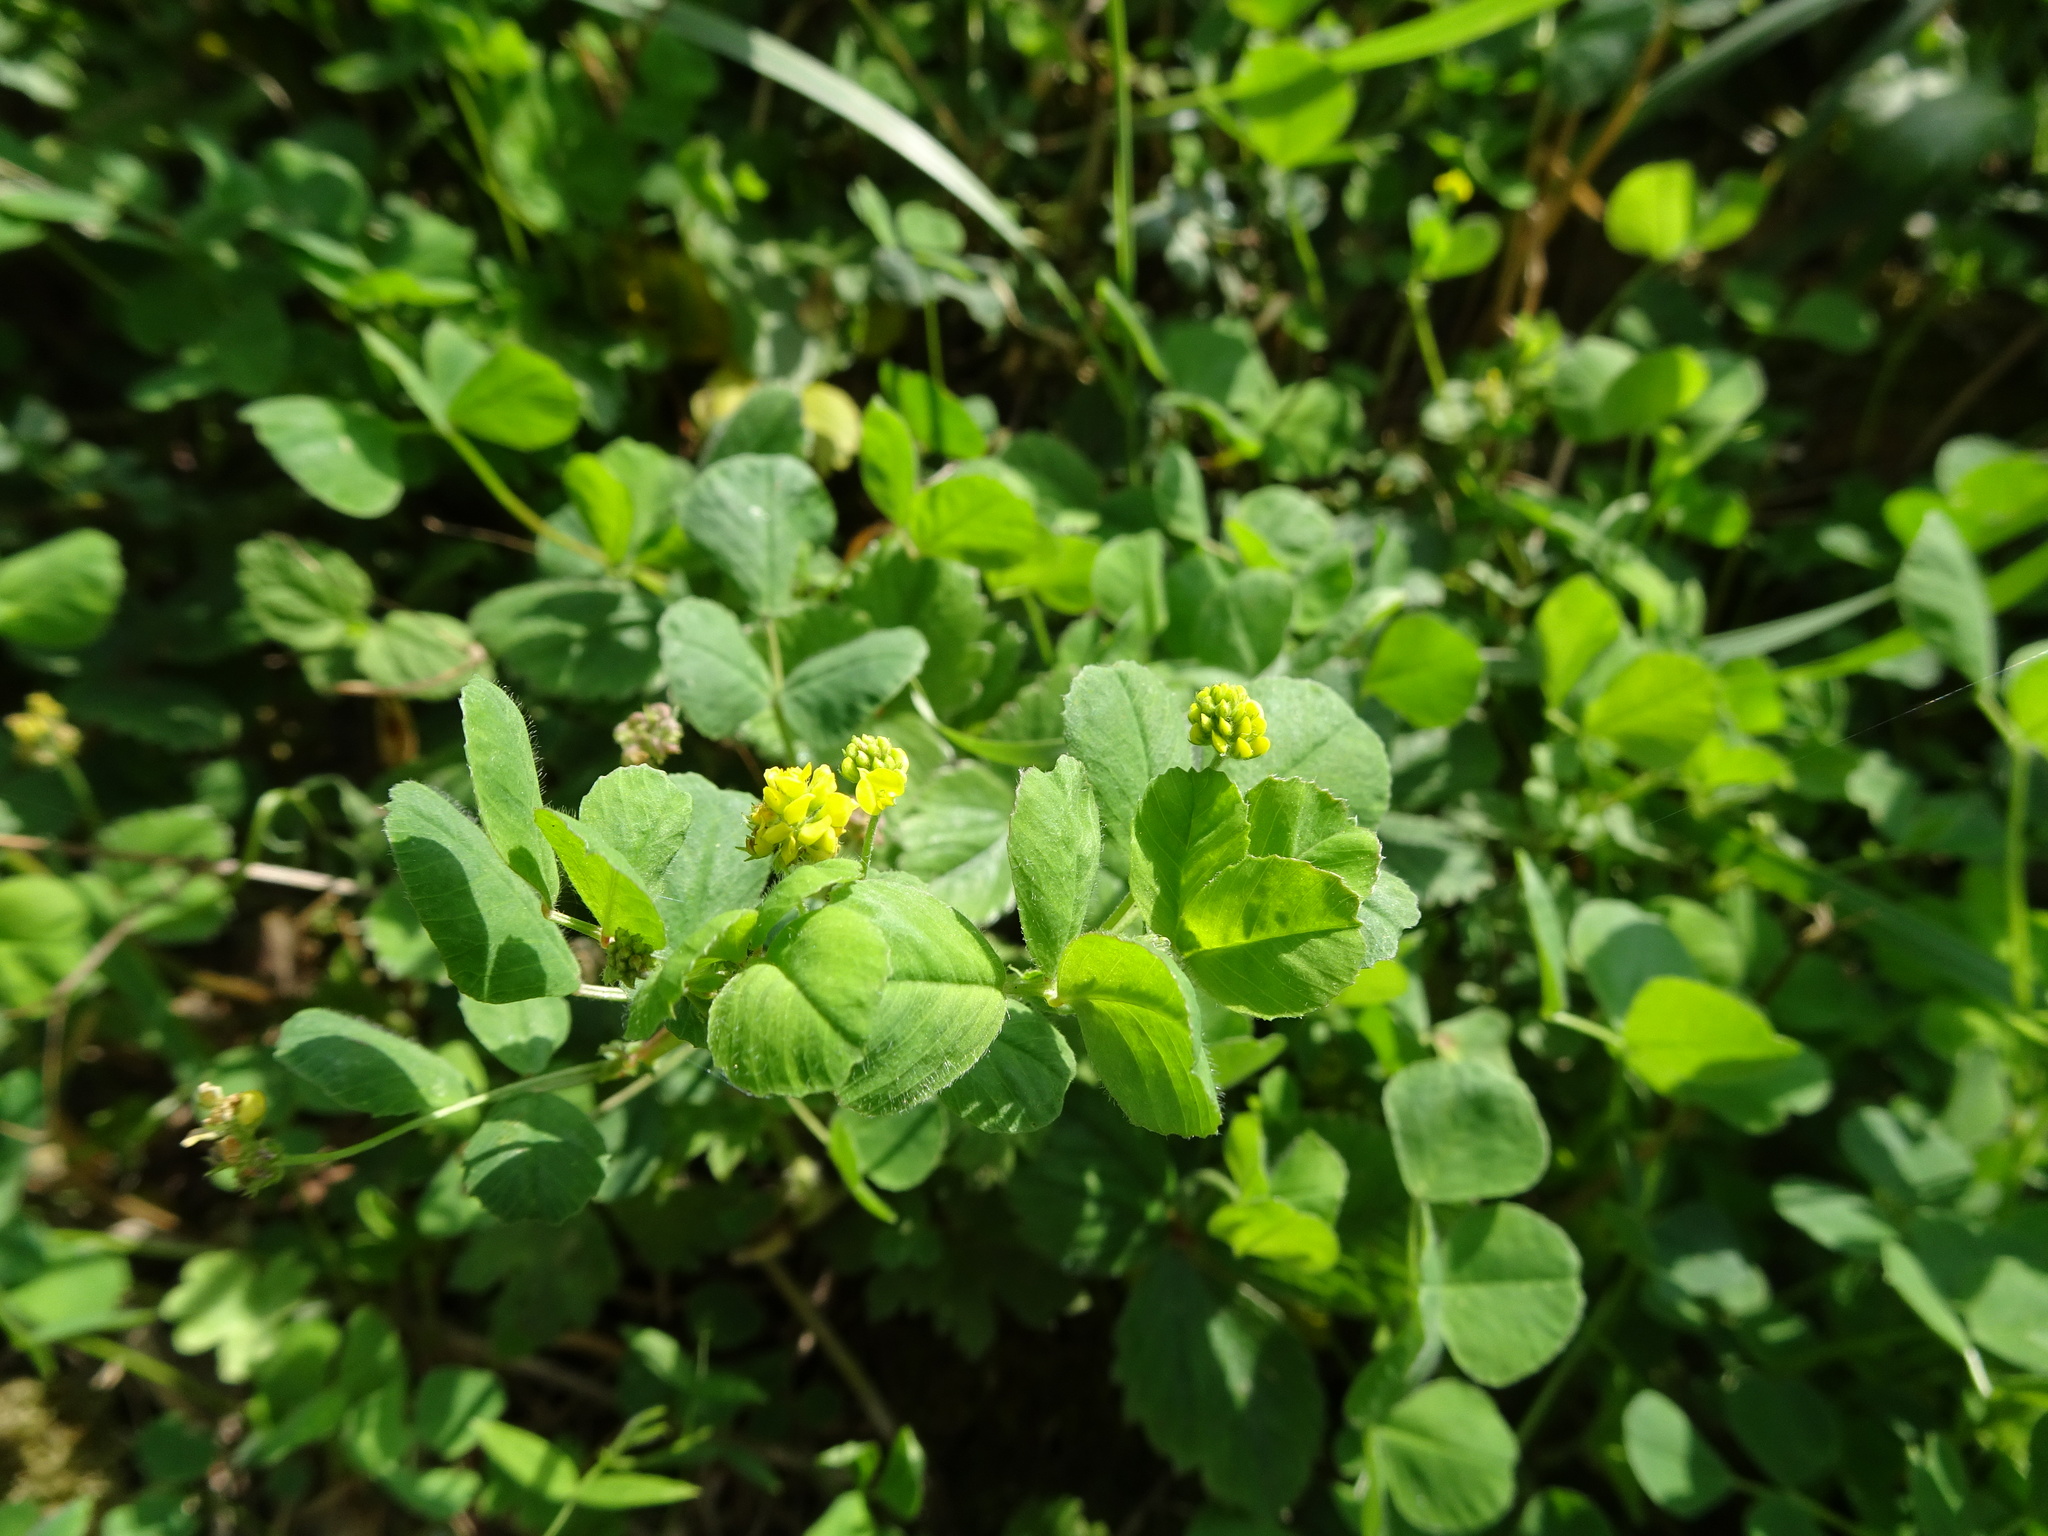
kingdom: Plantae
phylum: Tracheophyta
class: Magnoliopsida
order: Fabales
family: Fabaceae
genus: Medicago
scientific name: Medicago lupulina
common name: Black medick
